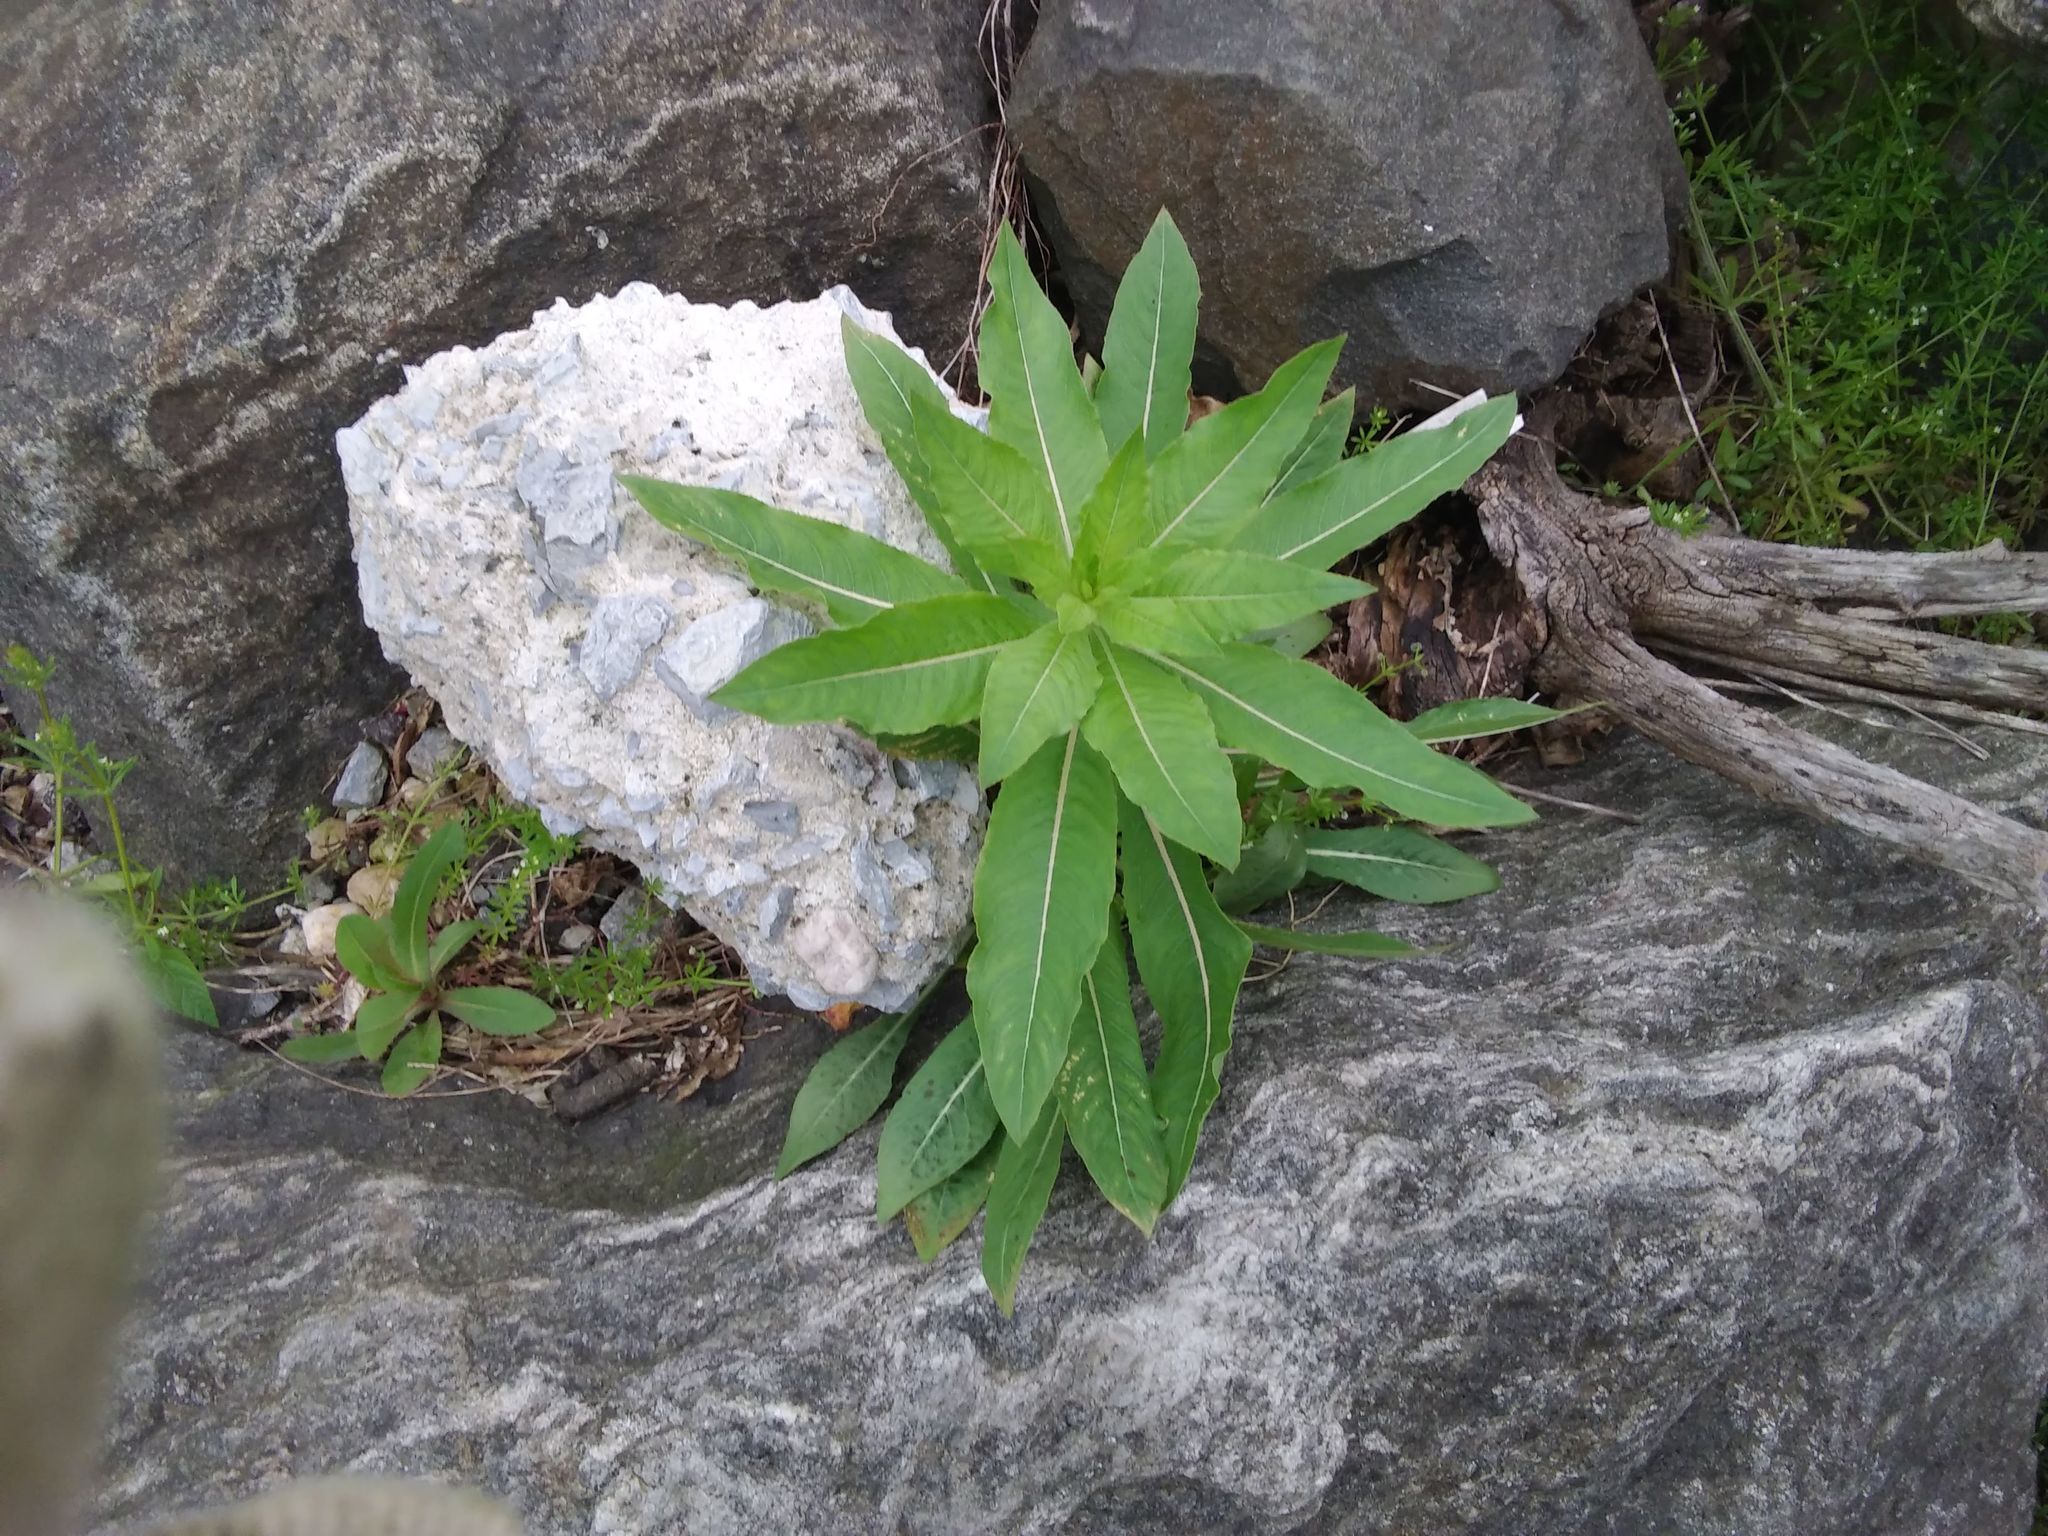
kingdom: Plantae
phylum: Tracheophyta
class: Magnoliopsida
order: Myrtales
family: Onagraceae
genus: Oenothera
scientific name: Oenothera biennis
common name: Common evening-primrose
